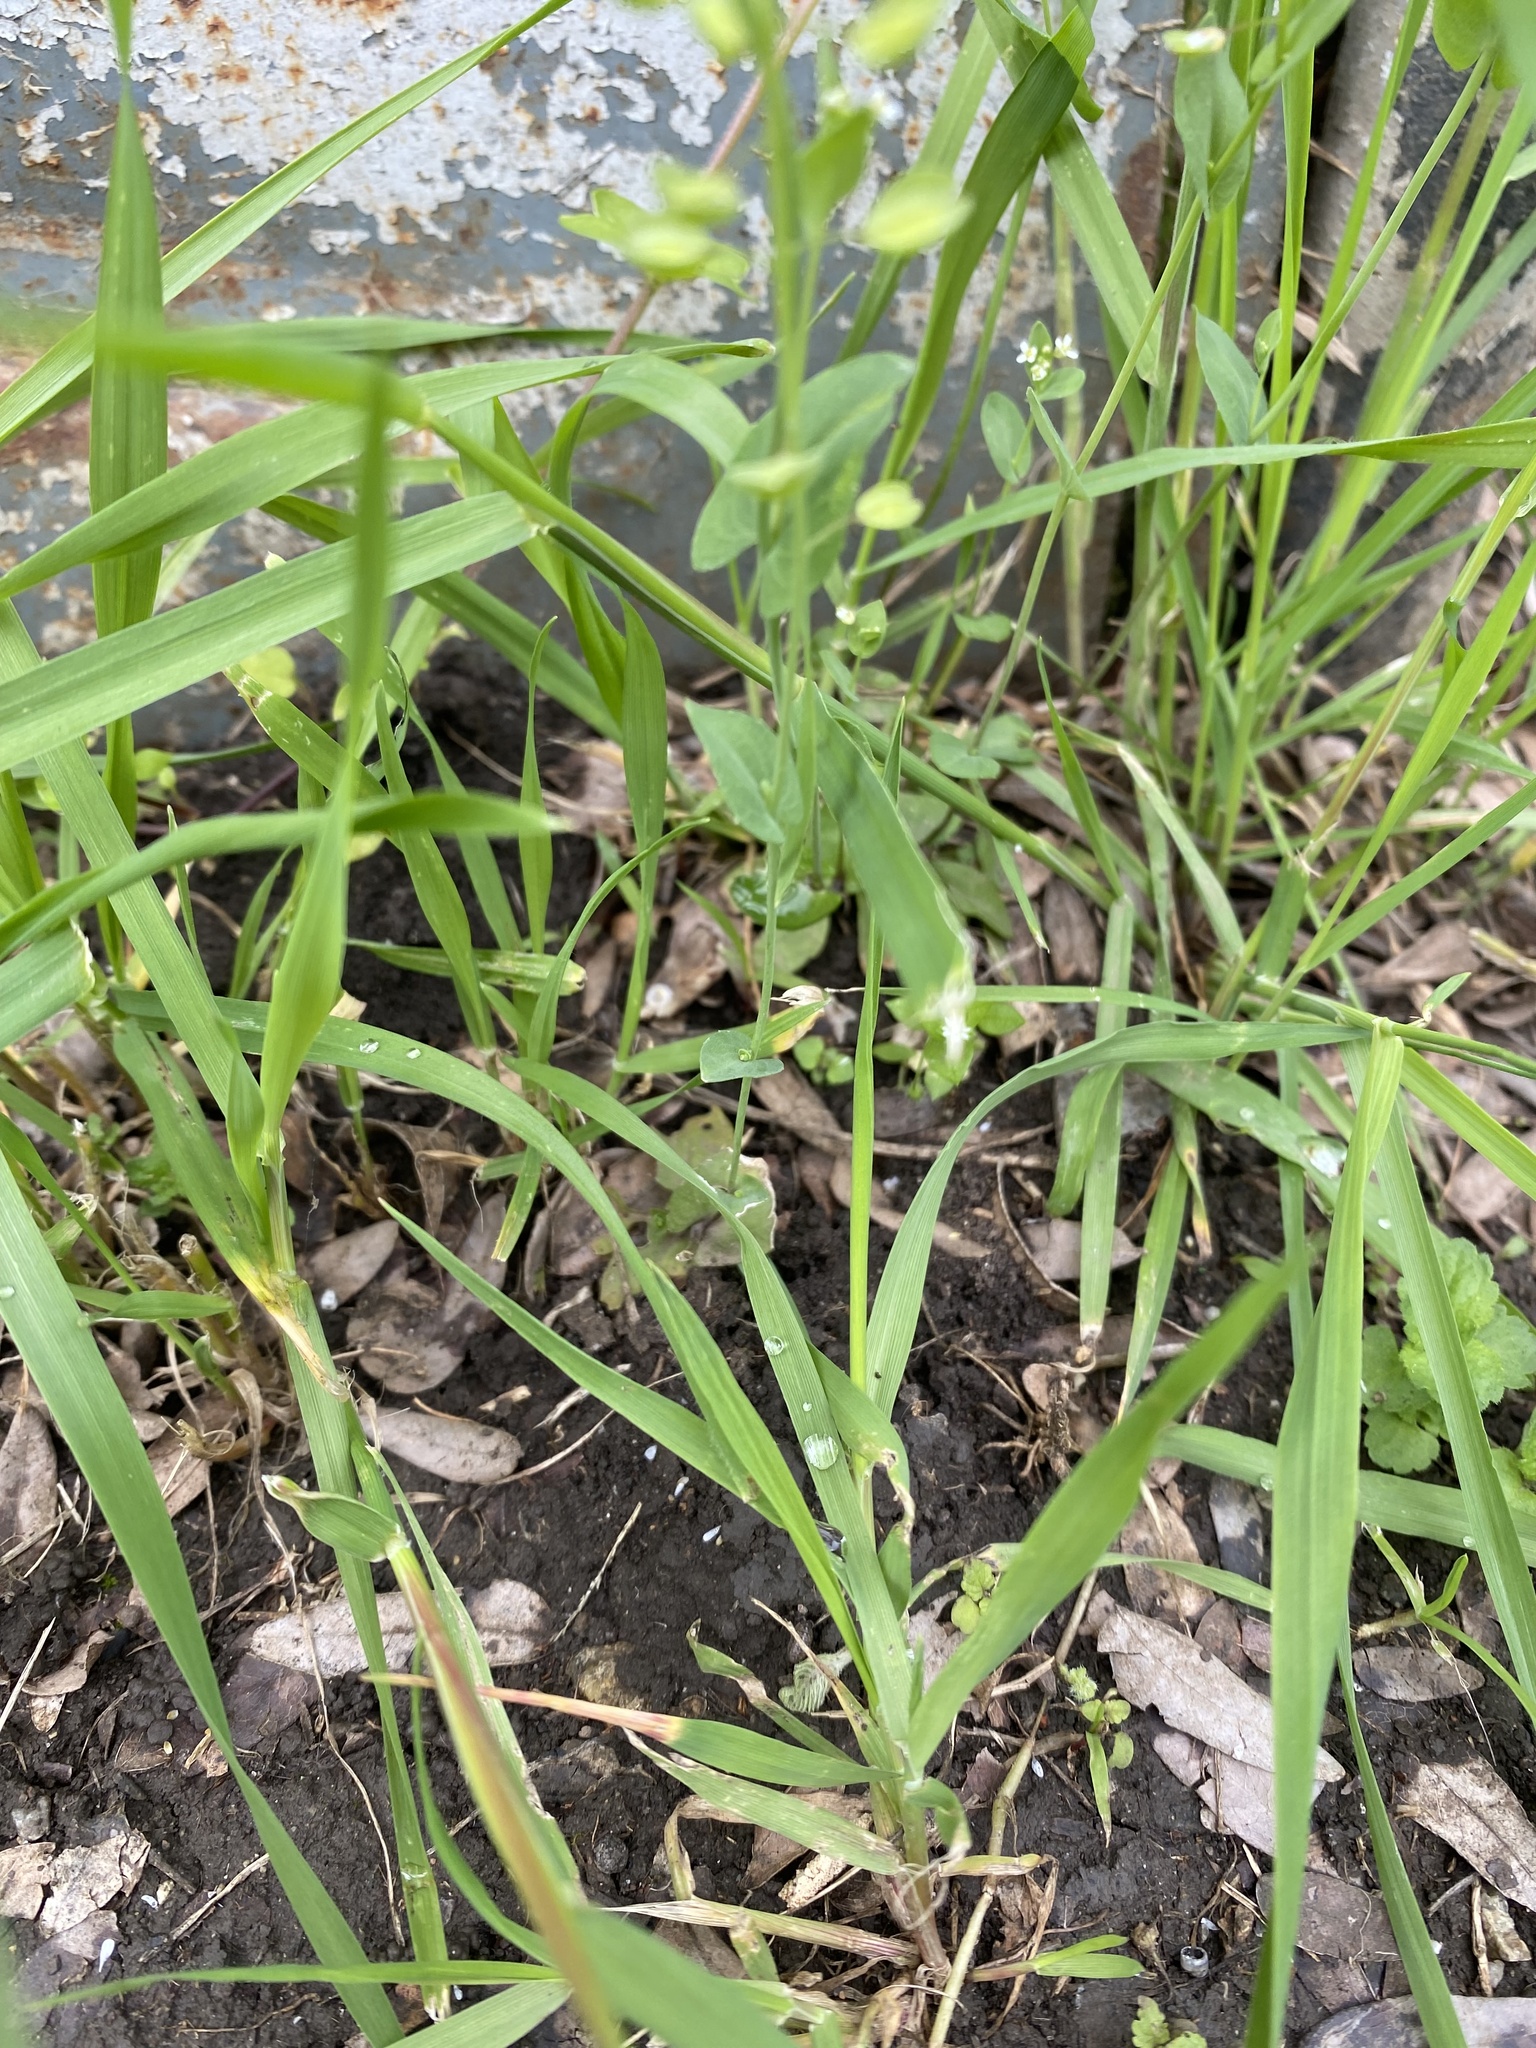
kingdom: Plantae
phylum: Tracheophyta
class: Magnoliopsida
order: Brassicales
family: Brassicaceae
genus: Noccaea
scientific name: Noccaea perfoliata
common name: Perfoliate pennycress
